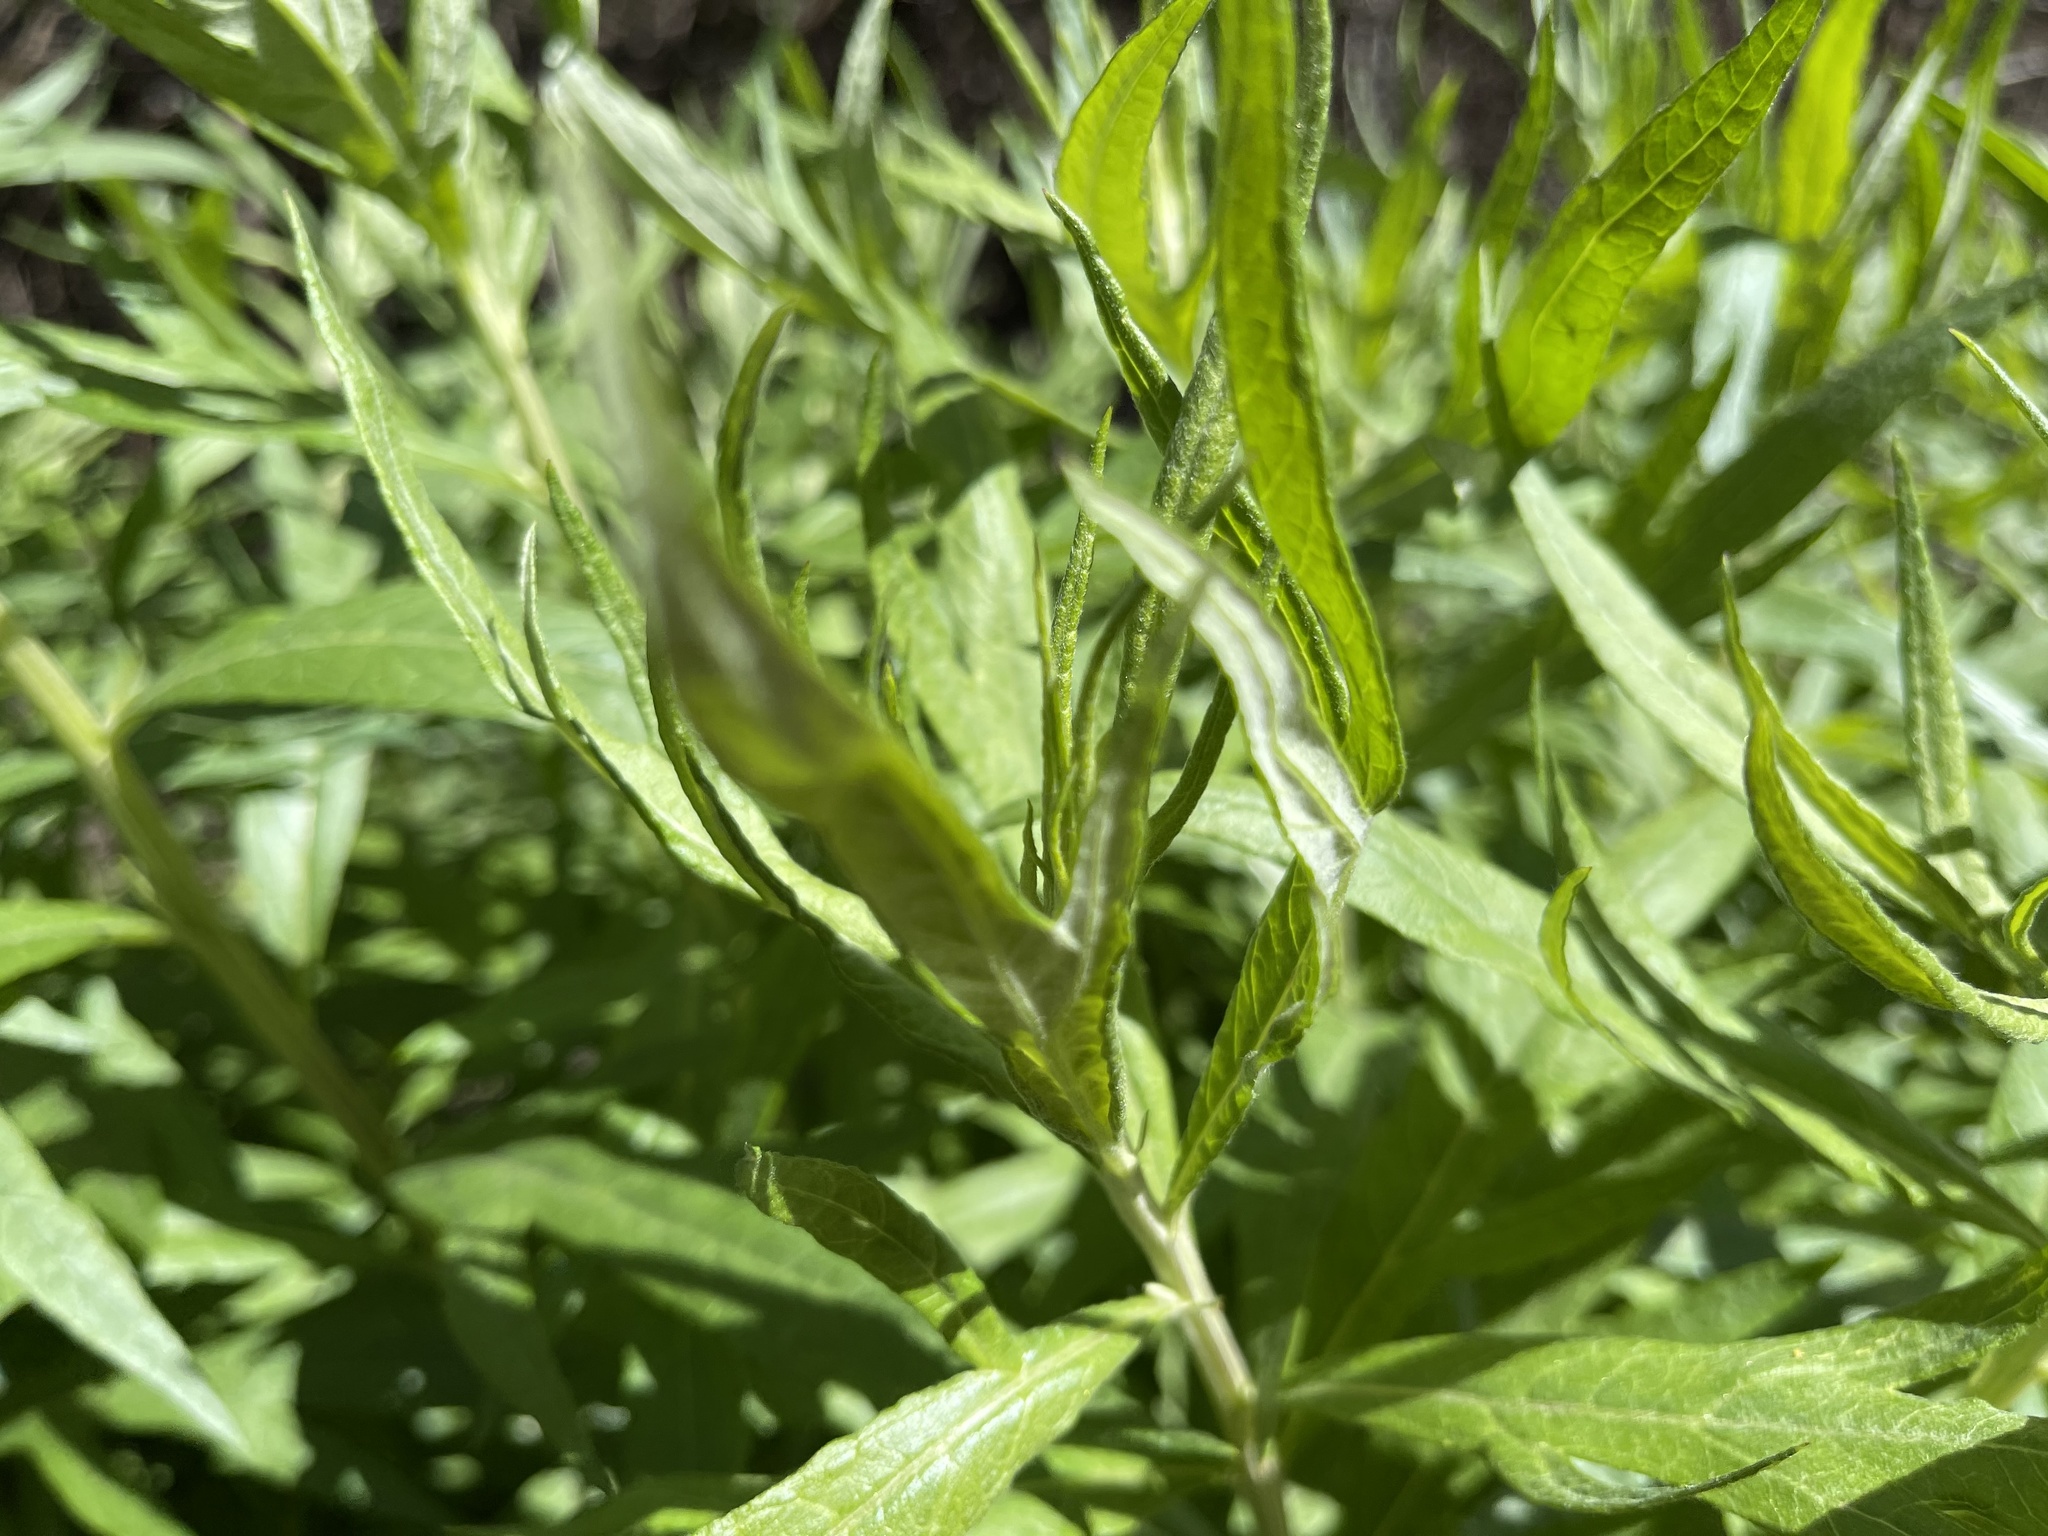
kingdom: Plantae
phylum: Tracheophyta
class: Magnoliopsida
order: Asterales
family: Asteraceae
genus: Artemisia
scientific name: Artemisia douglasiana
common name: Northwest mugwort
